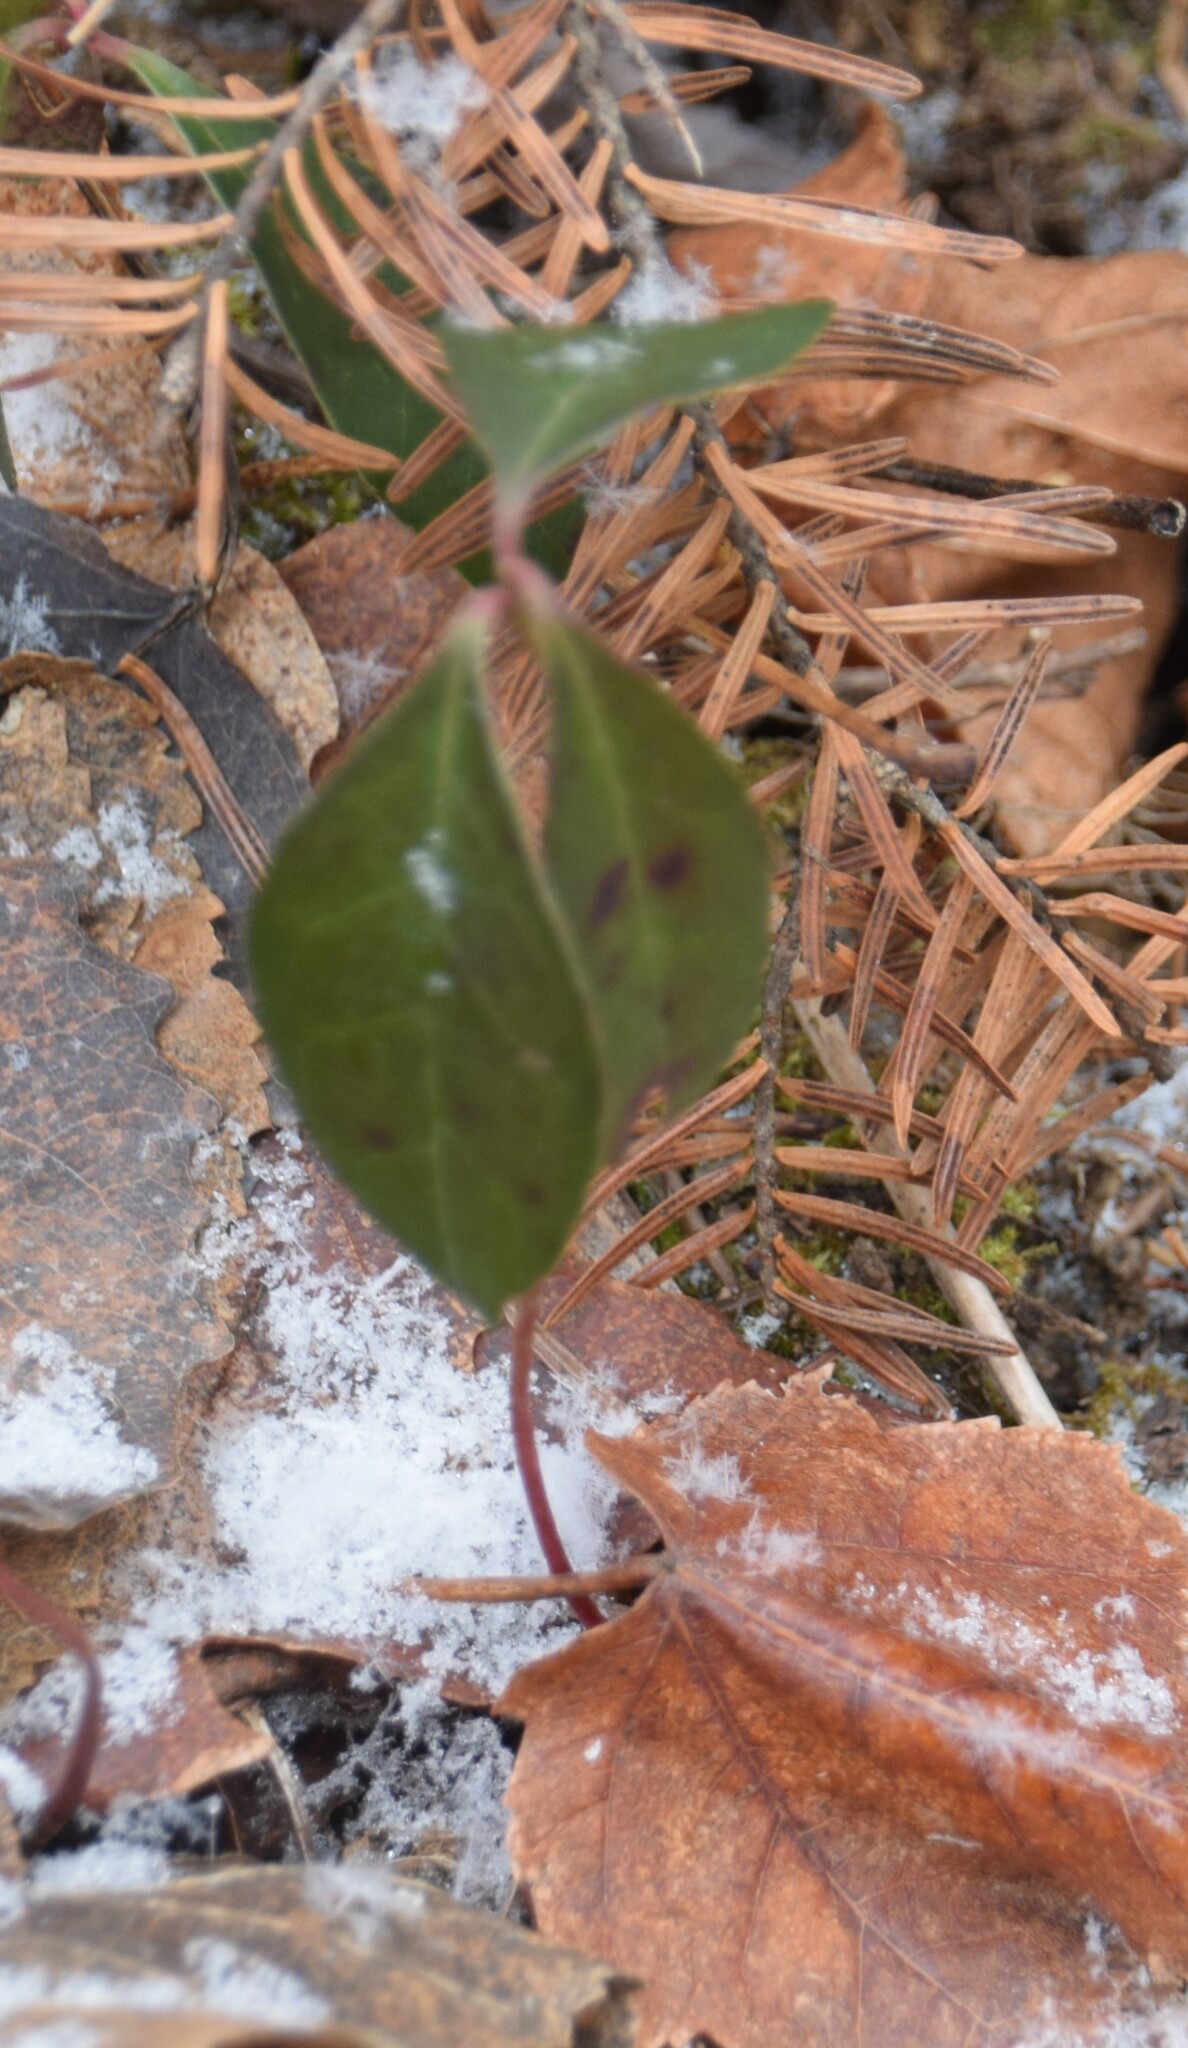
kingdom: Plantae
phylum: Tracheophyta
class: Magnoliopsida
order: Ericales
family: Ericaceae
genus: Gaultheria
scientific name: Gaultheria procumbens
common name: Checkerberry
